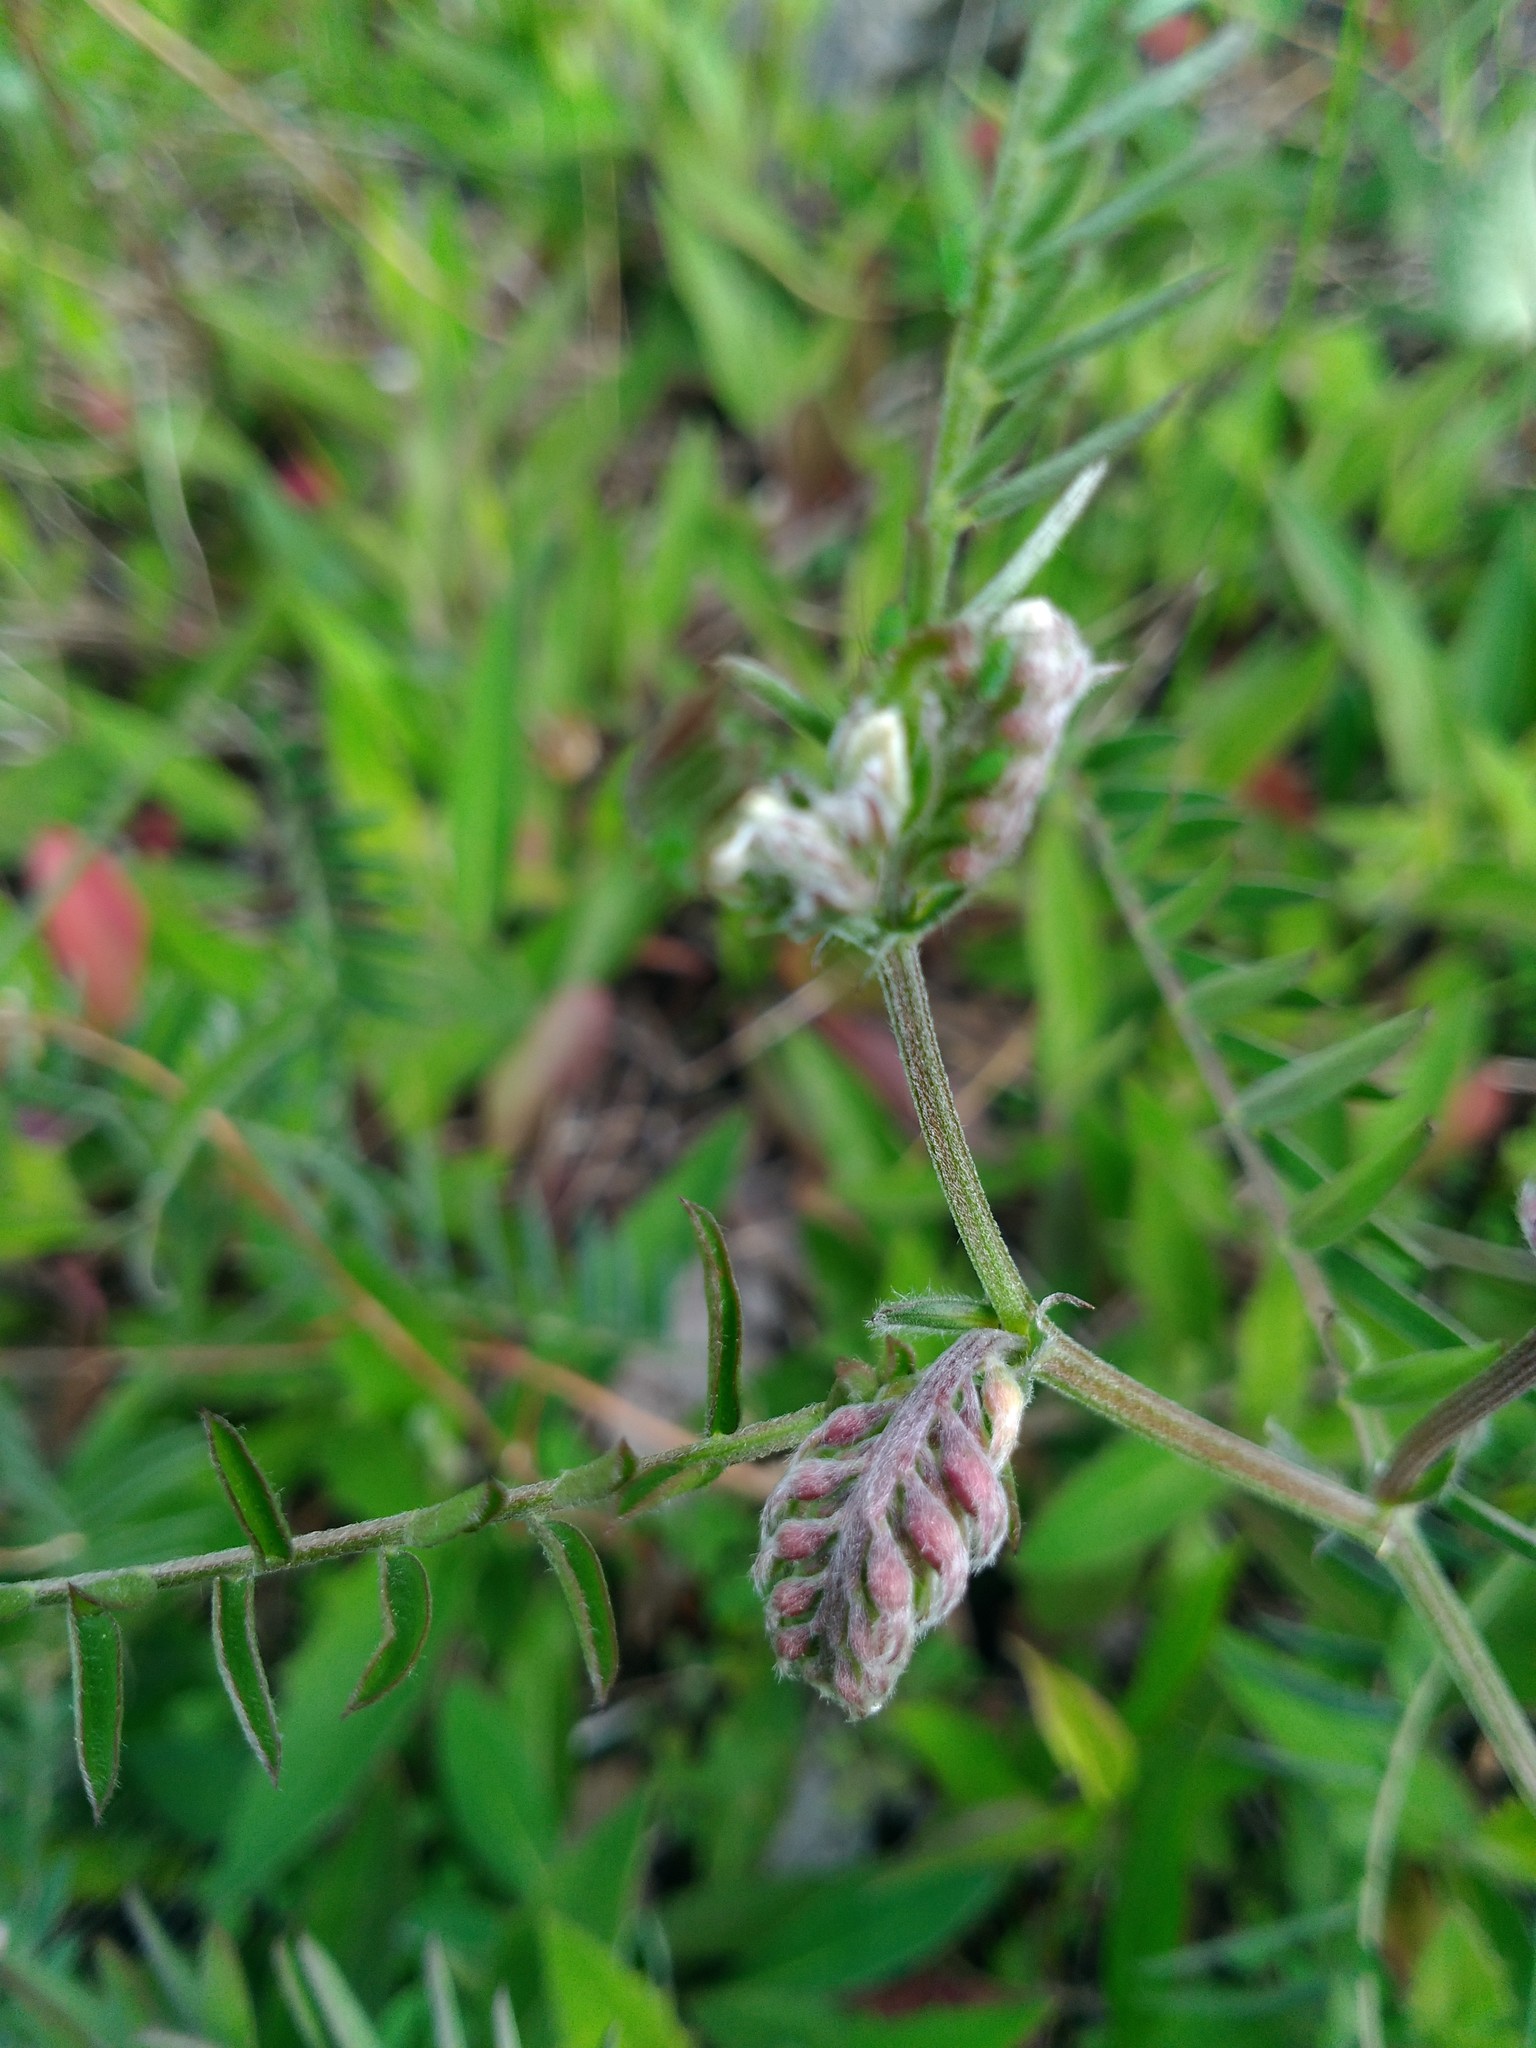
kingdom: Plantae
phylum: Tracheophyta
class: Magnoliopsida
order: Fabales
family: Fabaceae
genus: Vicia
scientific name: Vicia cracca
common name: Bird vetch
